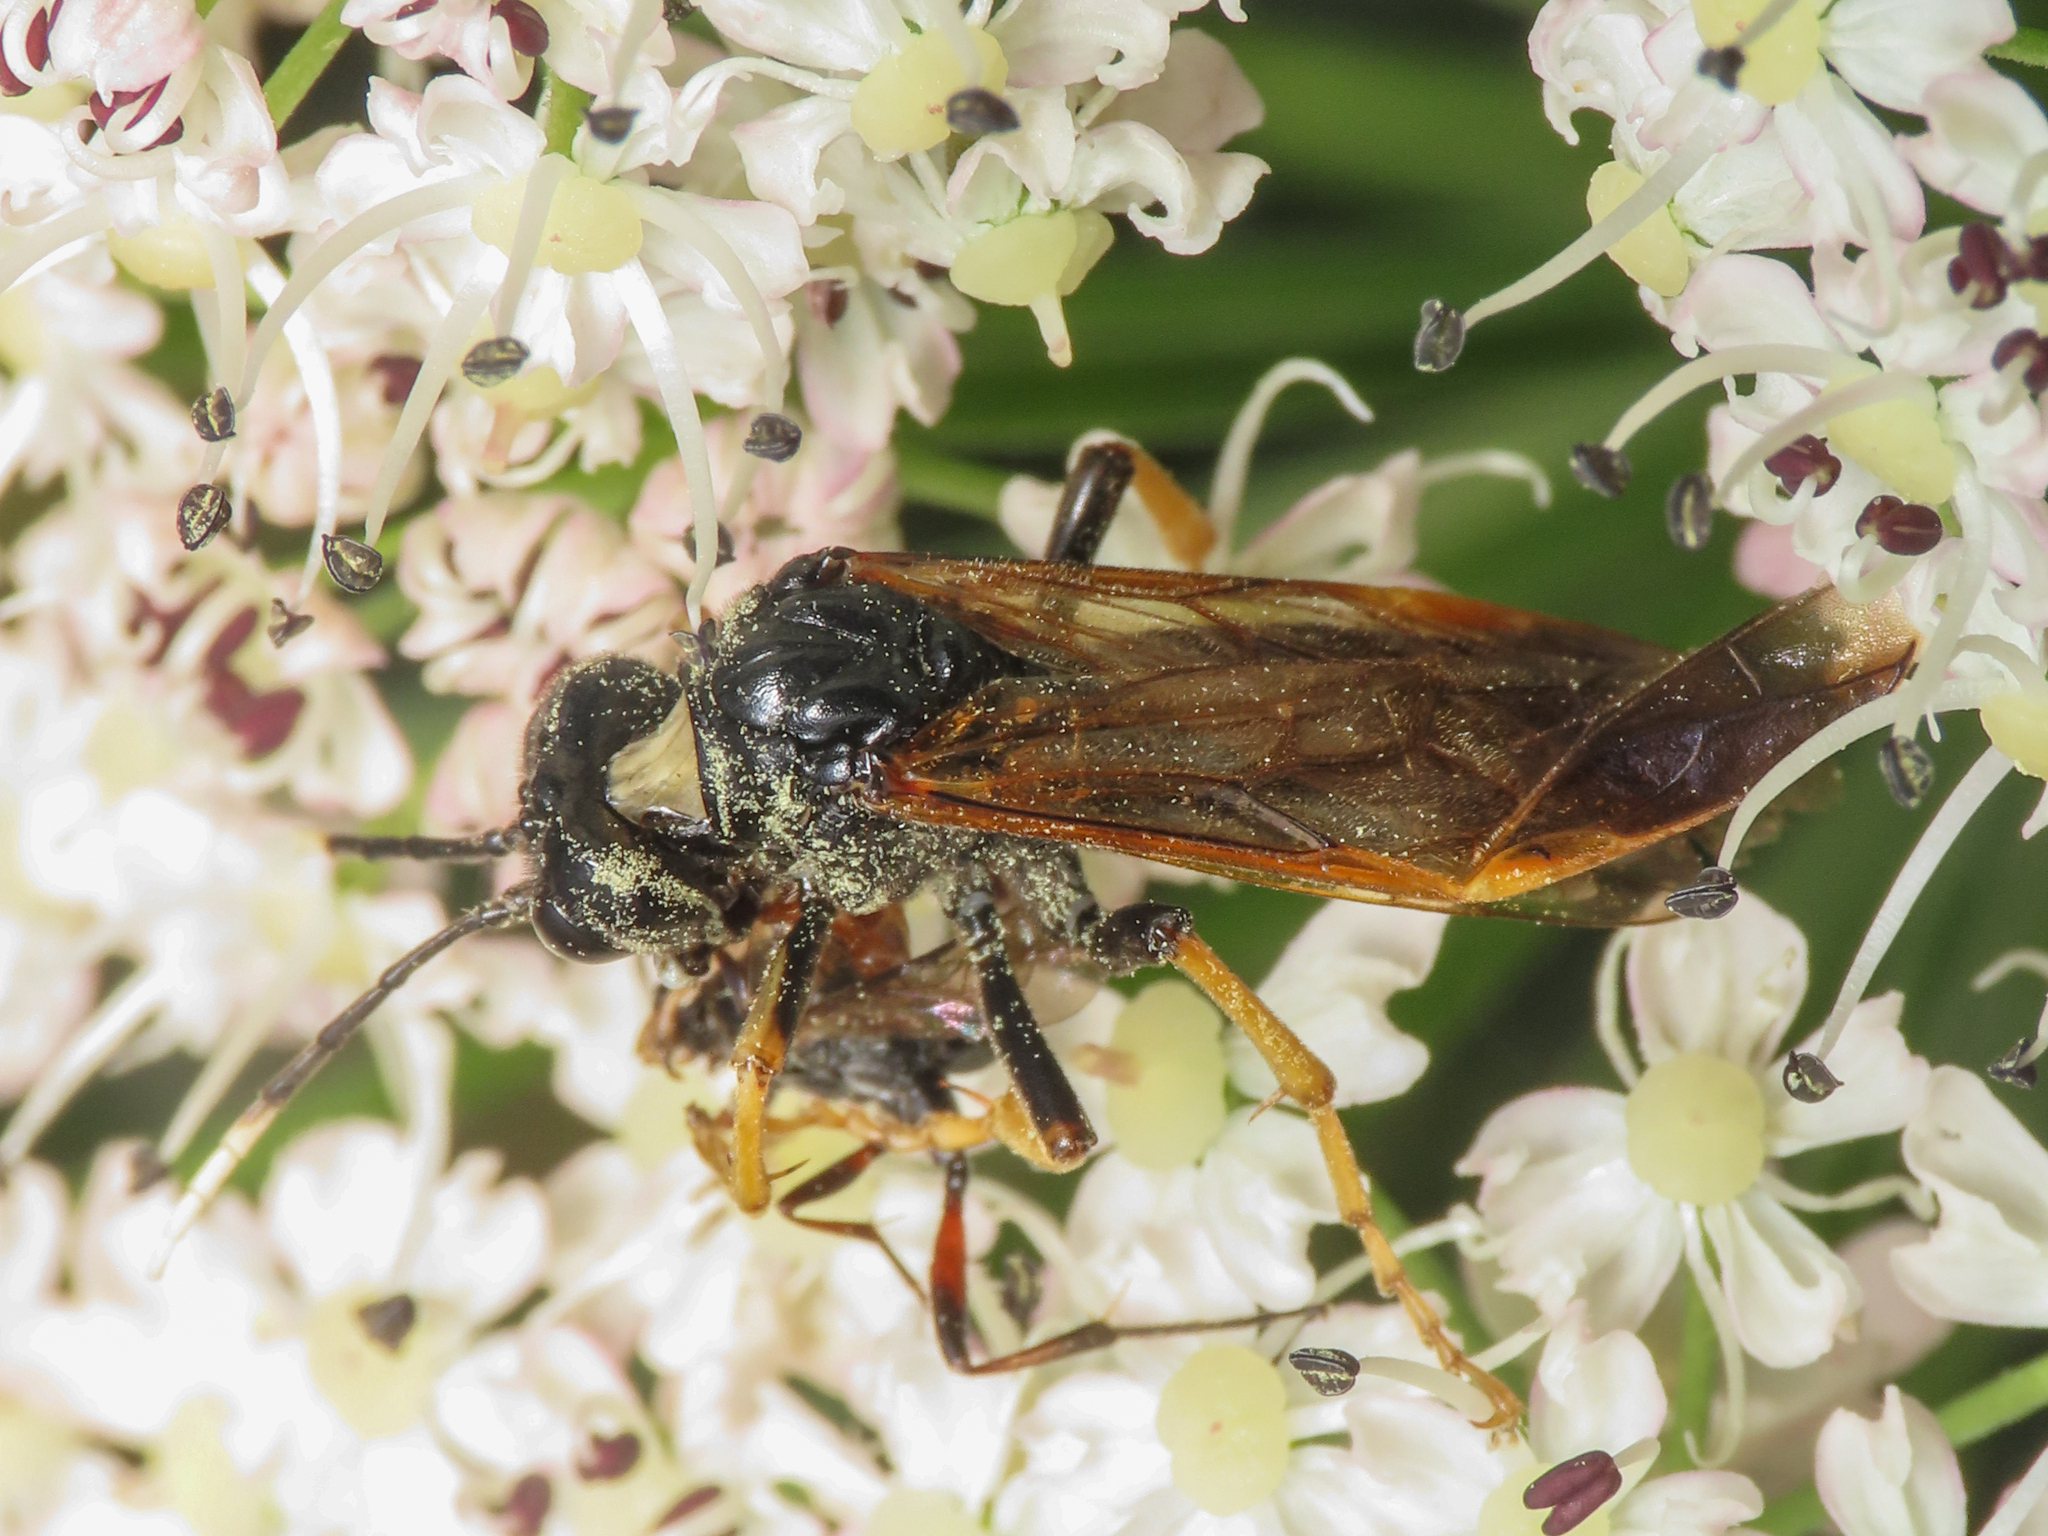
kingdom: Animalia
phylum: Arthropoda
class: Insecta
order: Hymenoptera
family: Tenthredinidae
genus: Tenthredo
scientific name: Tenthredo crassa
